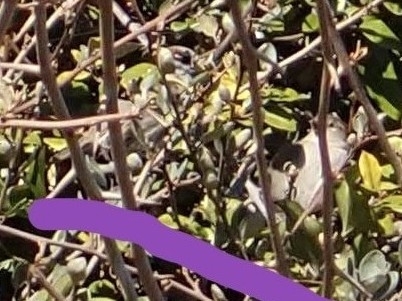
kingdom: Animalia
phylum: Chordata
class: Aves
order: Passeriformes
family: Passeridae
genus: Passer
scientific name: Passer domesticus
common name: House sparrow
